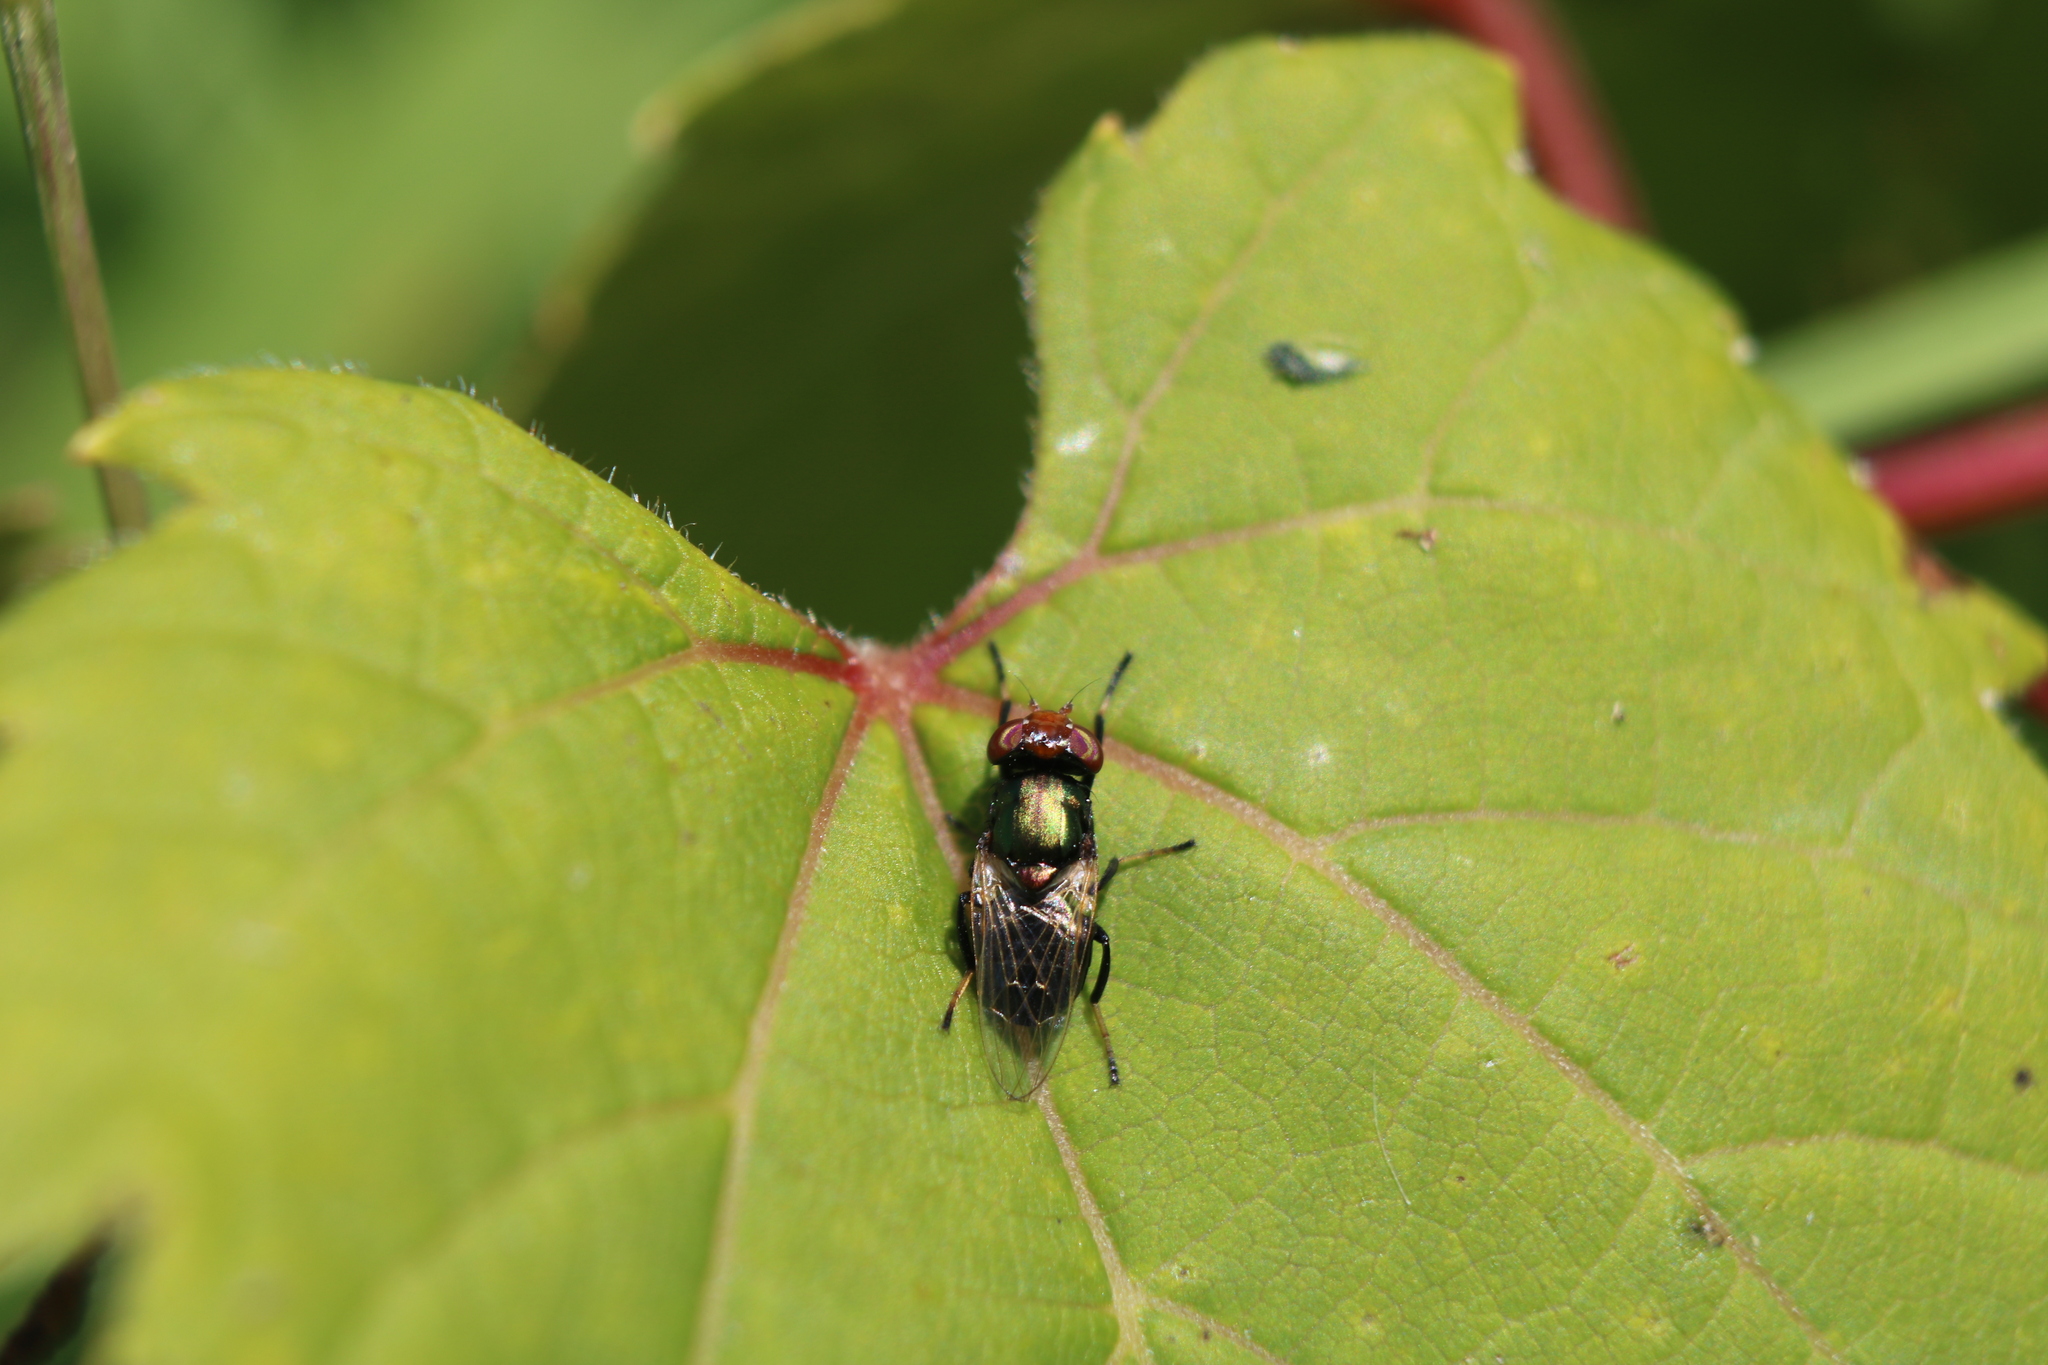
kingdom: Animalia
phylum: Arthropoda
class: Insecta
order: Diptera
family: Ulidiidae
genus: Physiphora
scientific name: Physiphora alceae
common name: Picture-winged fly
